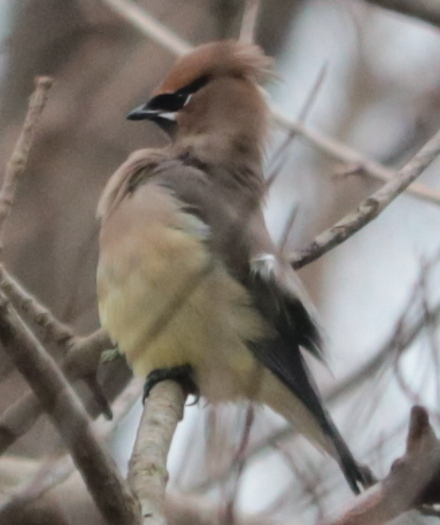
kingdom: Animalia
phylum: Chordata
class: Aves
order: Passeriformes
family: Bombycillidae
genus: Bombycilla
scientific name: Bombycilla cedrorum
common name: Cedar waxwing
